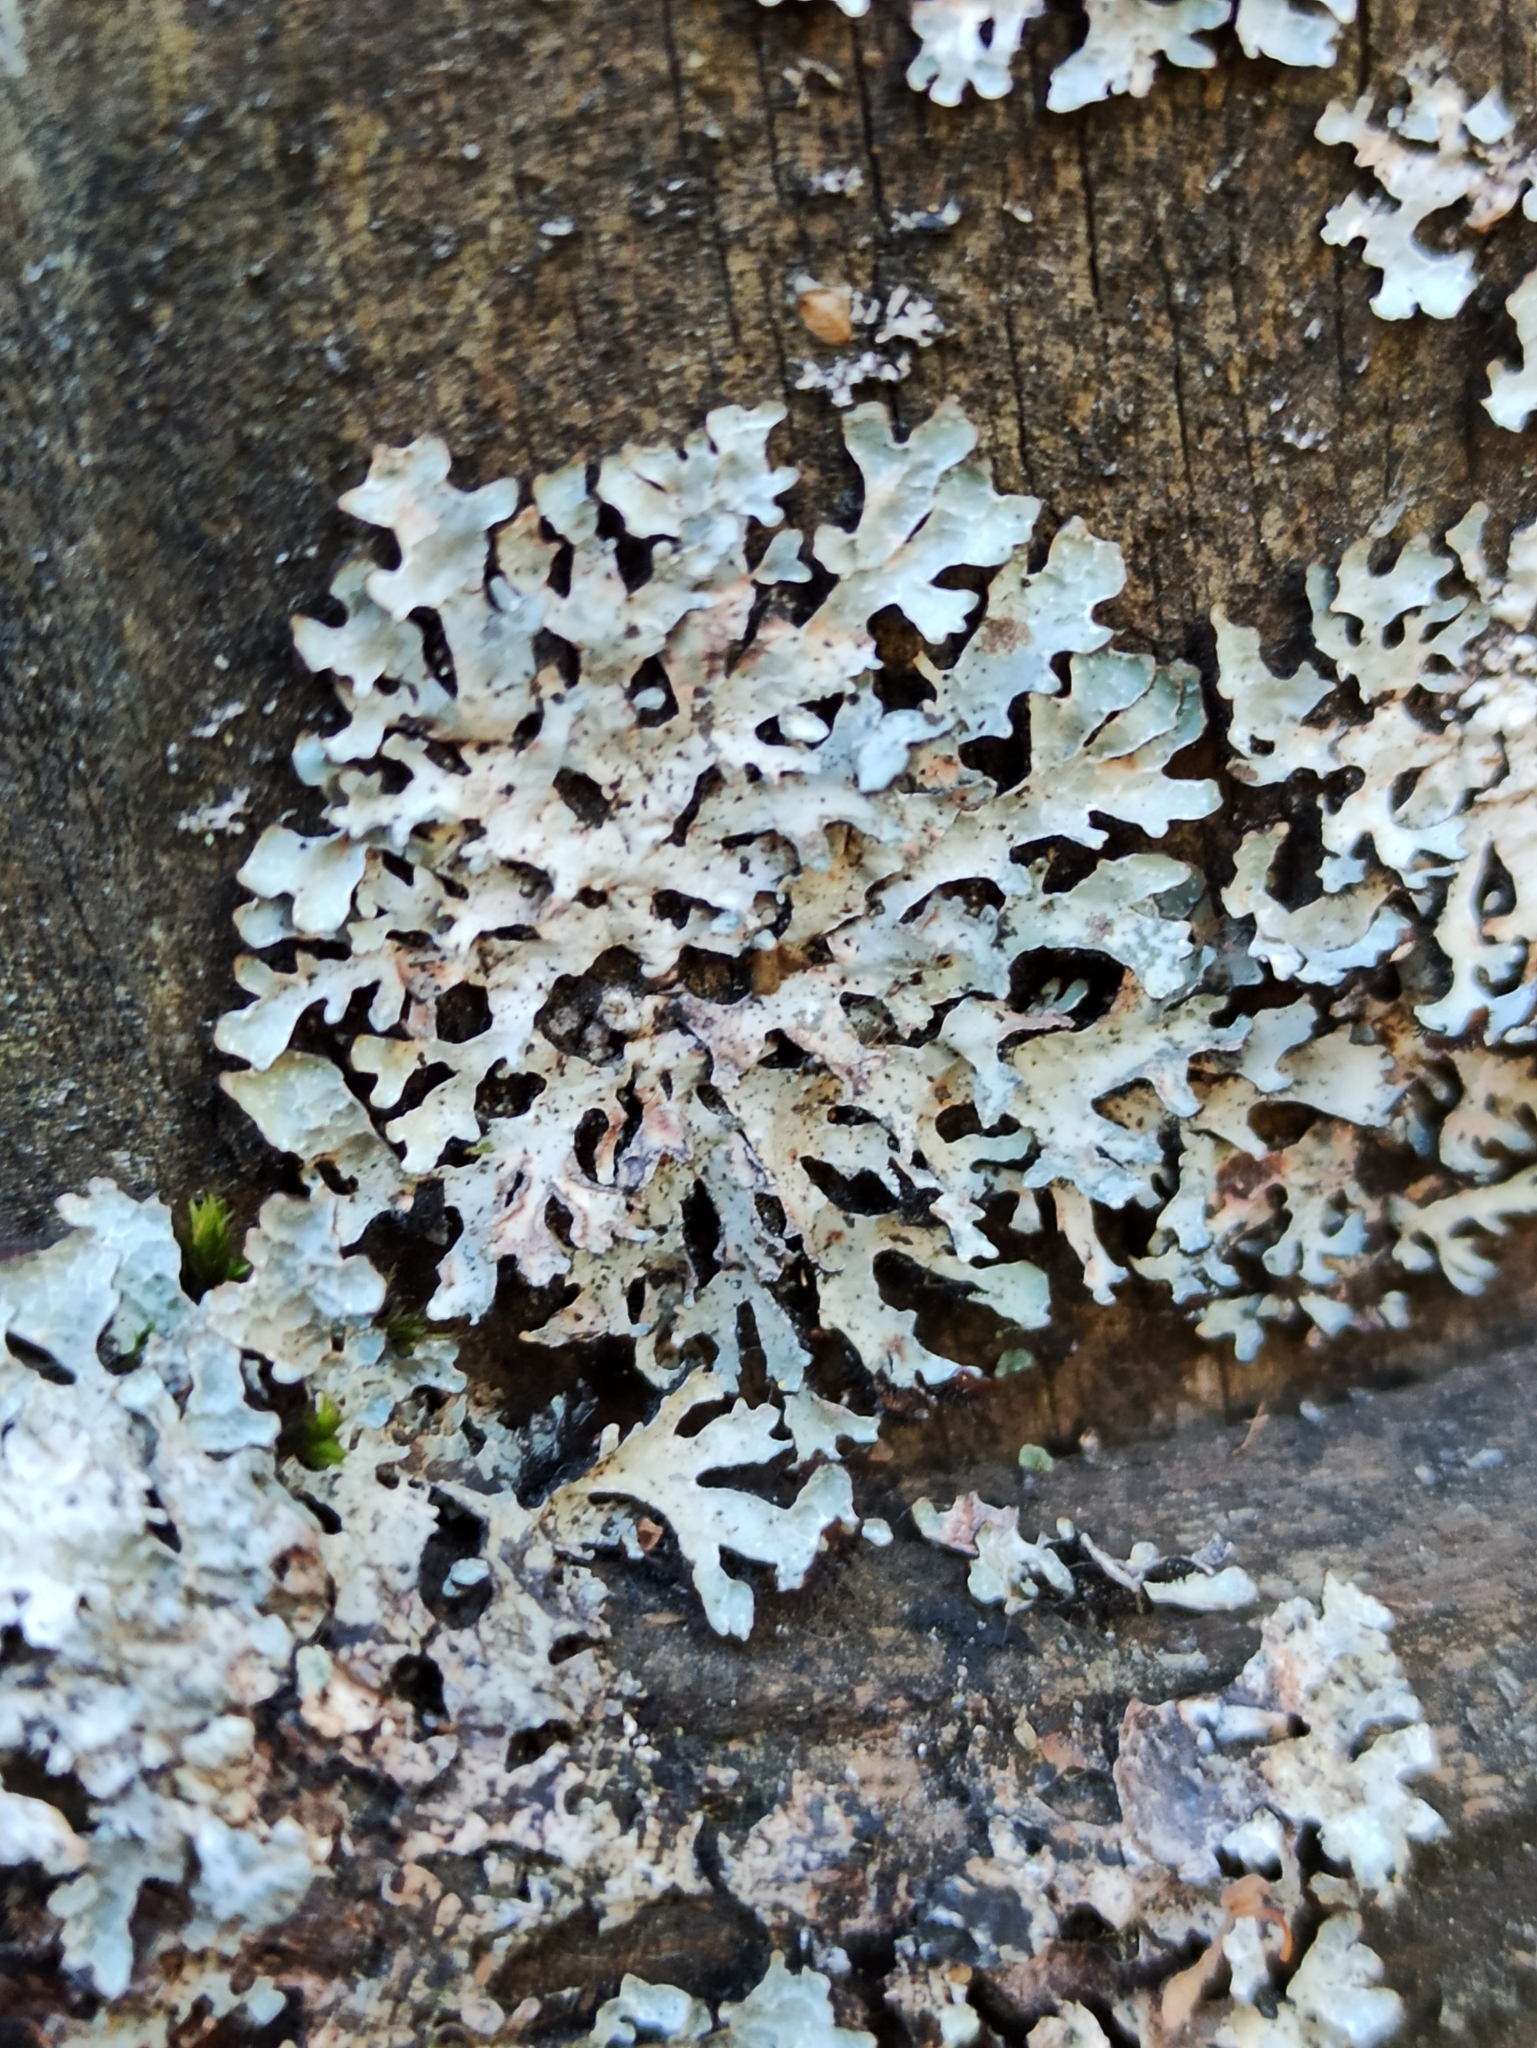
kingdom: Fungi
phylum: Ascomycota
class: Lecanoromycetes
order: Lecanorales
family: Parmeliaceae
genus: Parmelia
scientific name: Parmelia sulcata
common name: Netted shield lichen
